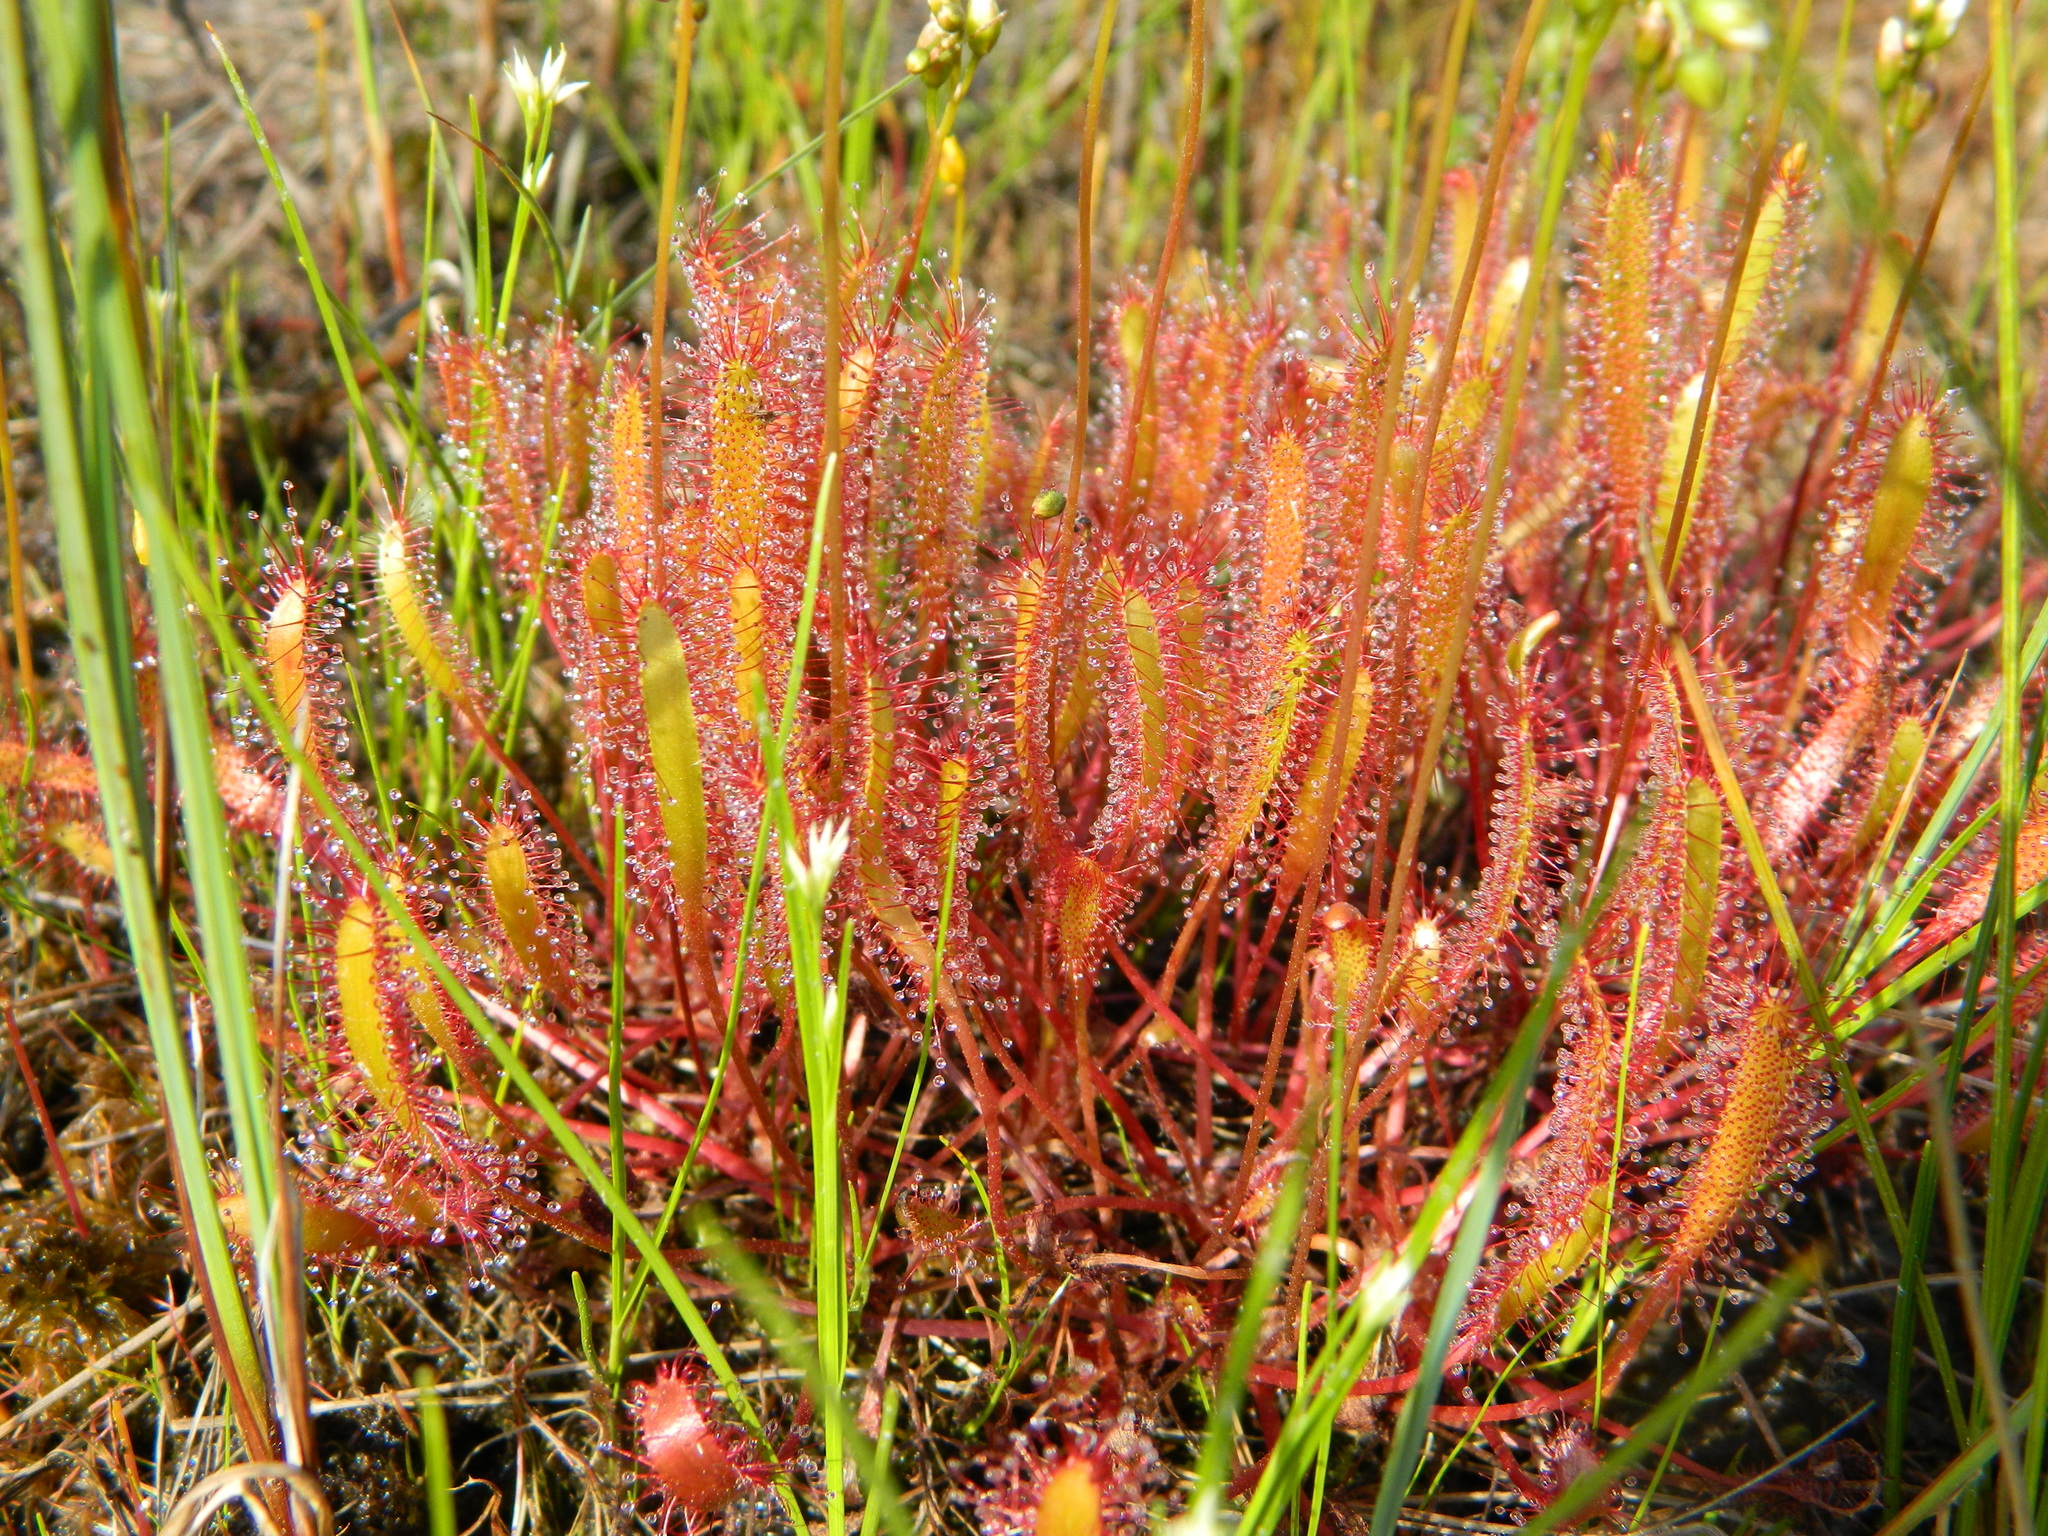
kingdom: Plantae
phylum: Tracheophyta
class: Magnoliopsida
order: Caryophyllales
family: Droseraceae
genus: Drosera
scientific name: Drosera anglica
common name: Great sundew
